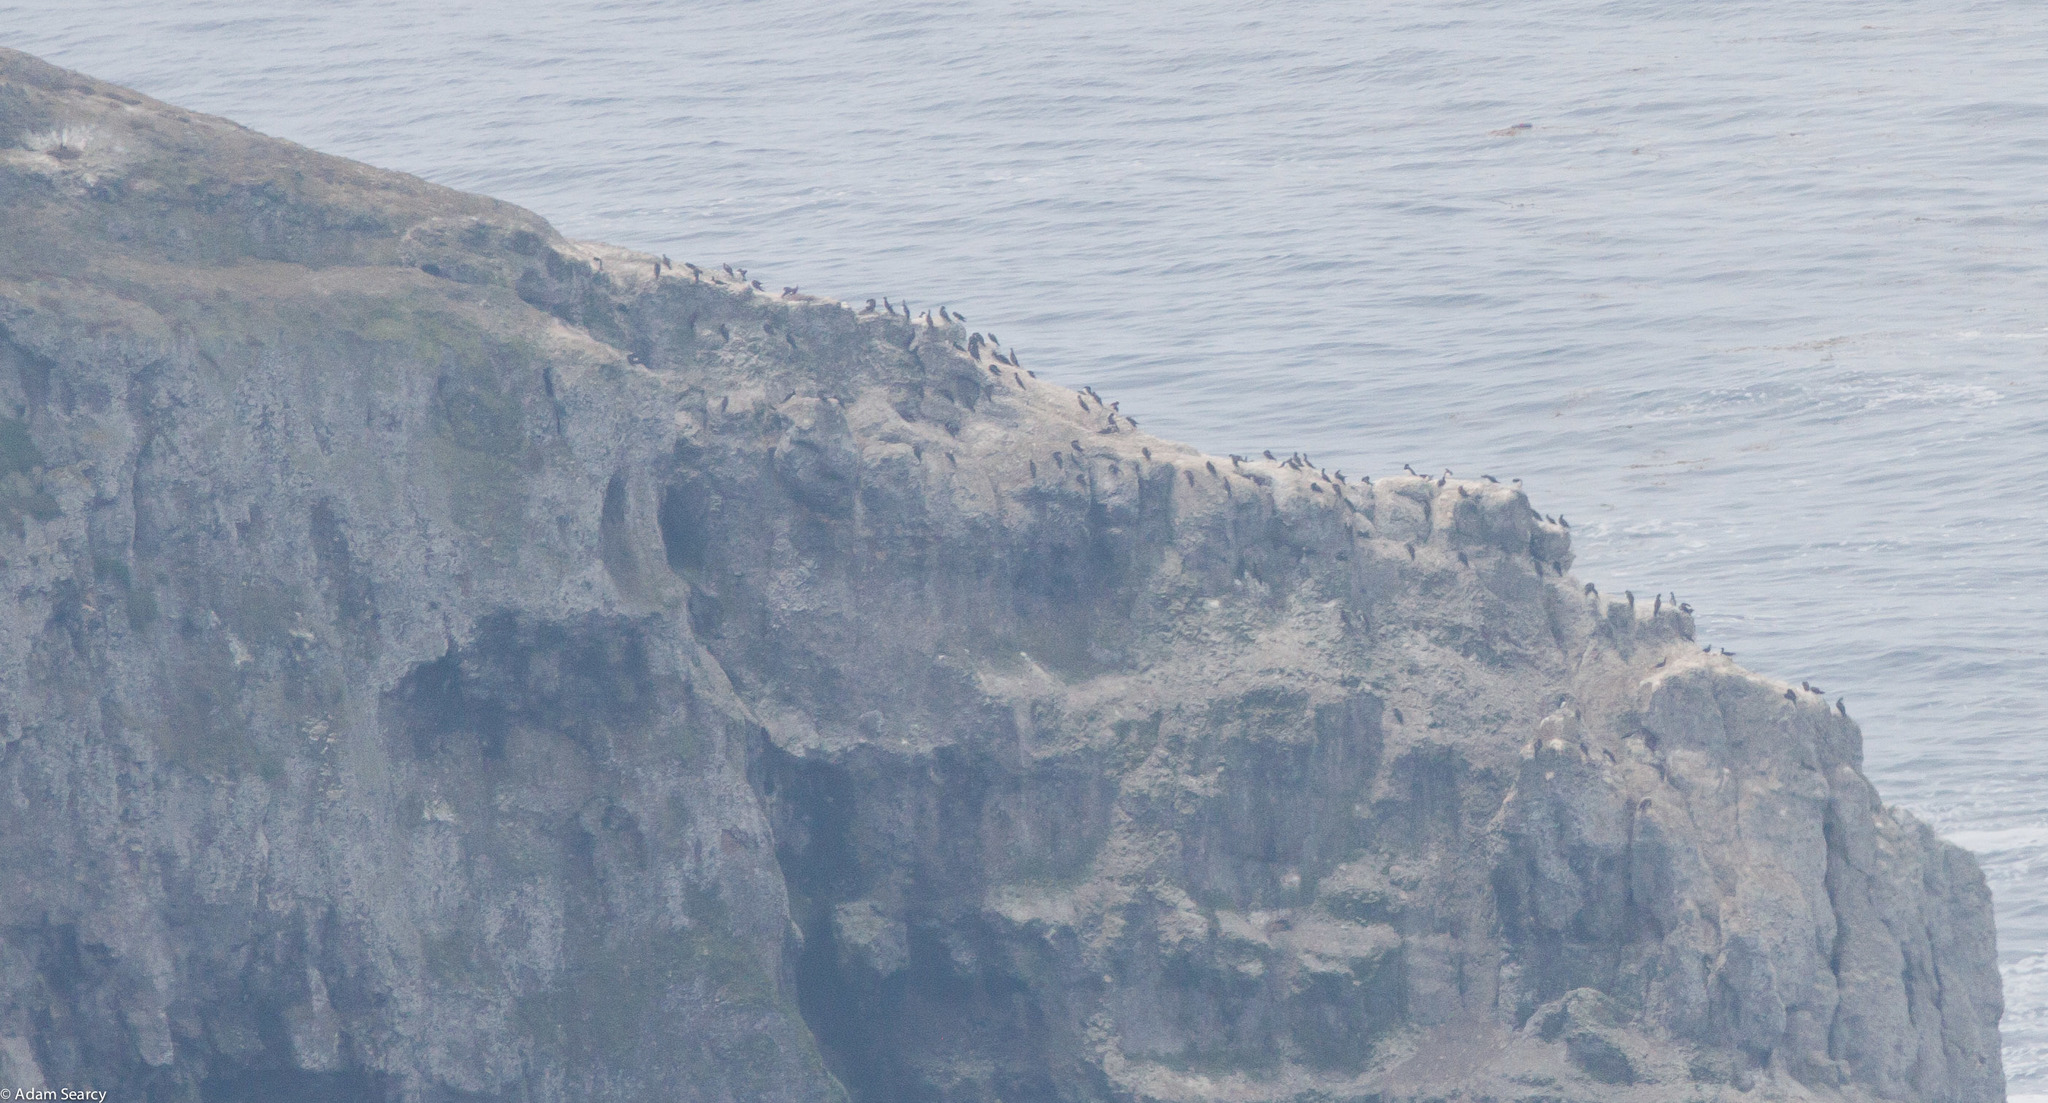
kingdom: Animalia
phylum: Chordata
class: Aves
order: Suliformes
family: Sulidae
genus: Sula
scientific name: Sula leucogaster
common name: Brown booby
